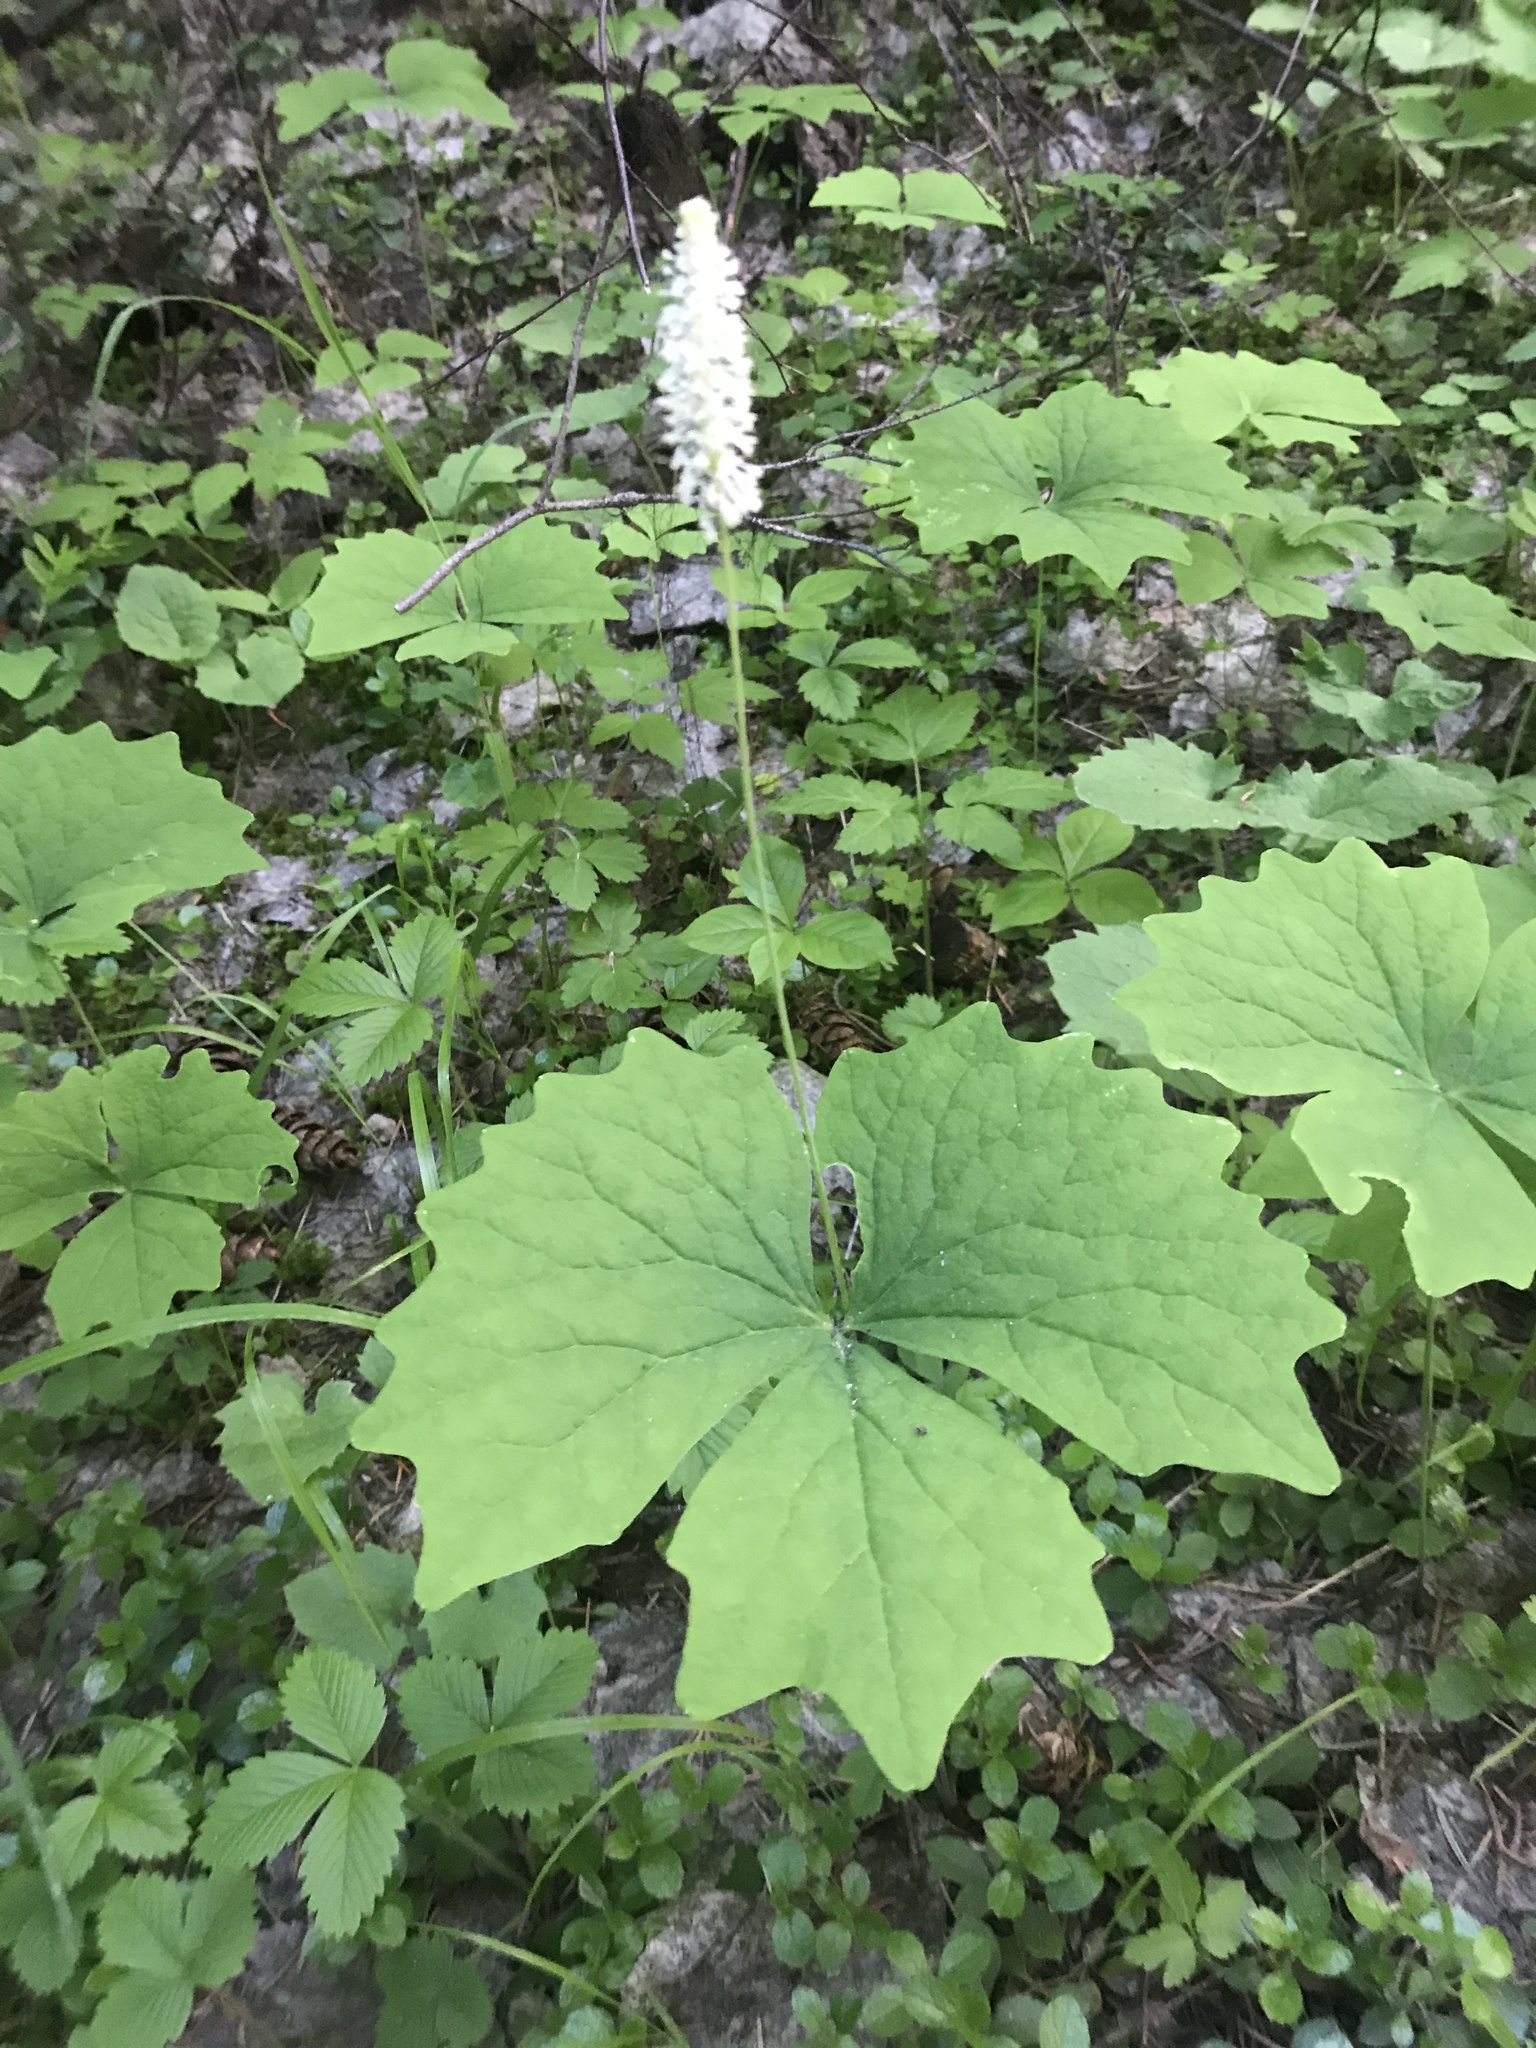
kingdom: Plantae
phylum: Tracheophyta
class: Magnoliopsida
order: Ranunculales
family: Berberidaceae
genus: Achlys
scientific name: Achlys triphylla
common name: Vanilla-leaf
